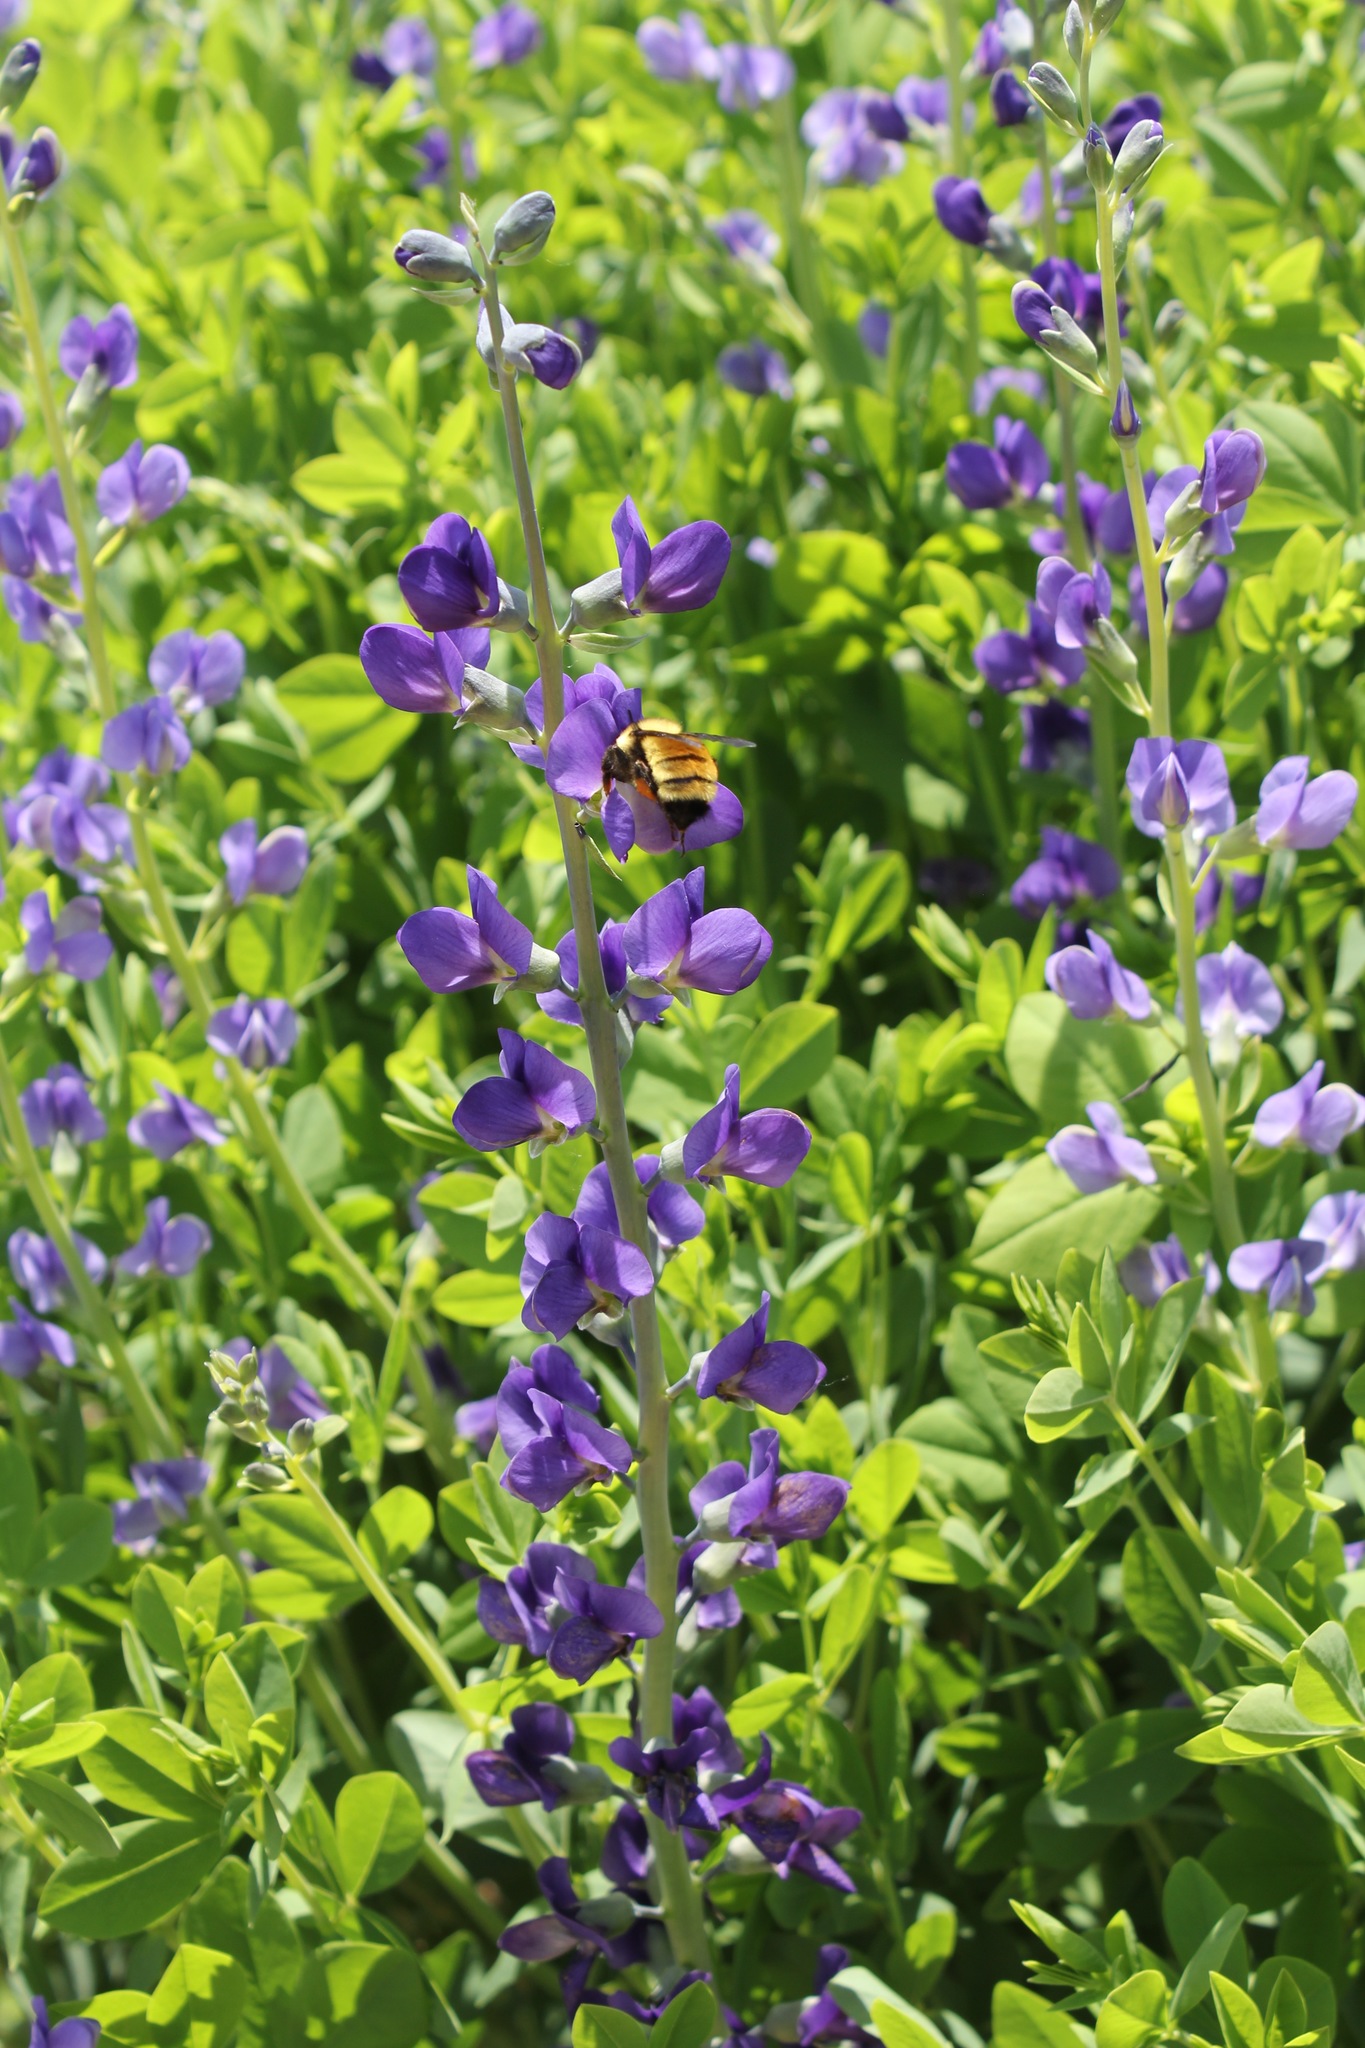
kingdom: Animalia
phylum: Arthropoda
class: Insecta
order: Hymenoptera
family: Apidae
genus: Bombus
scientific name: Bombus fervidus
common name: Yellow bumble bee
